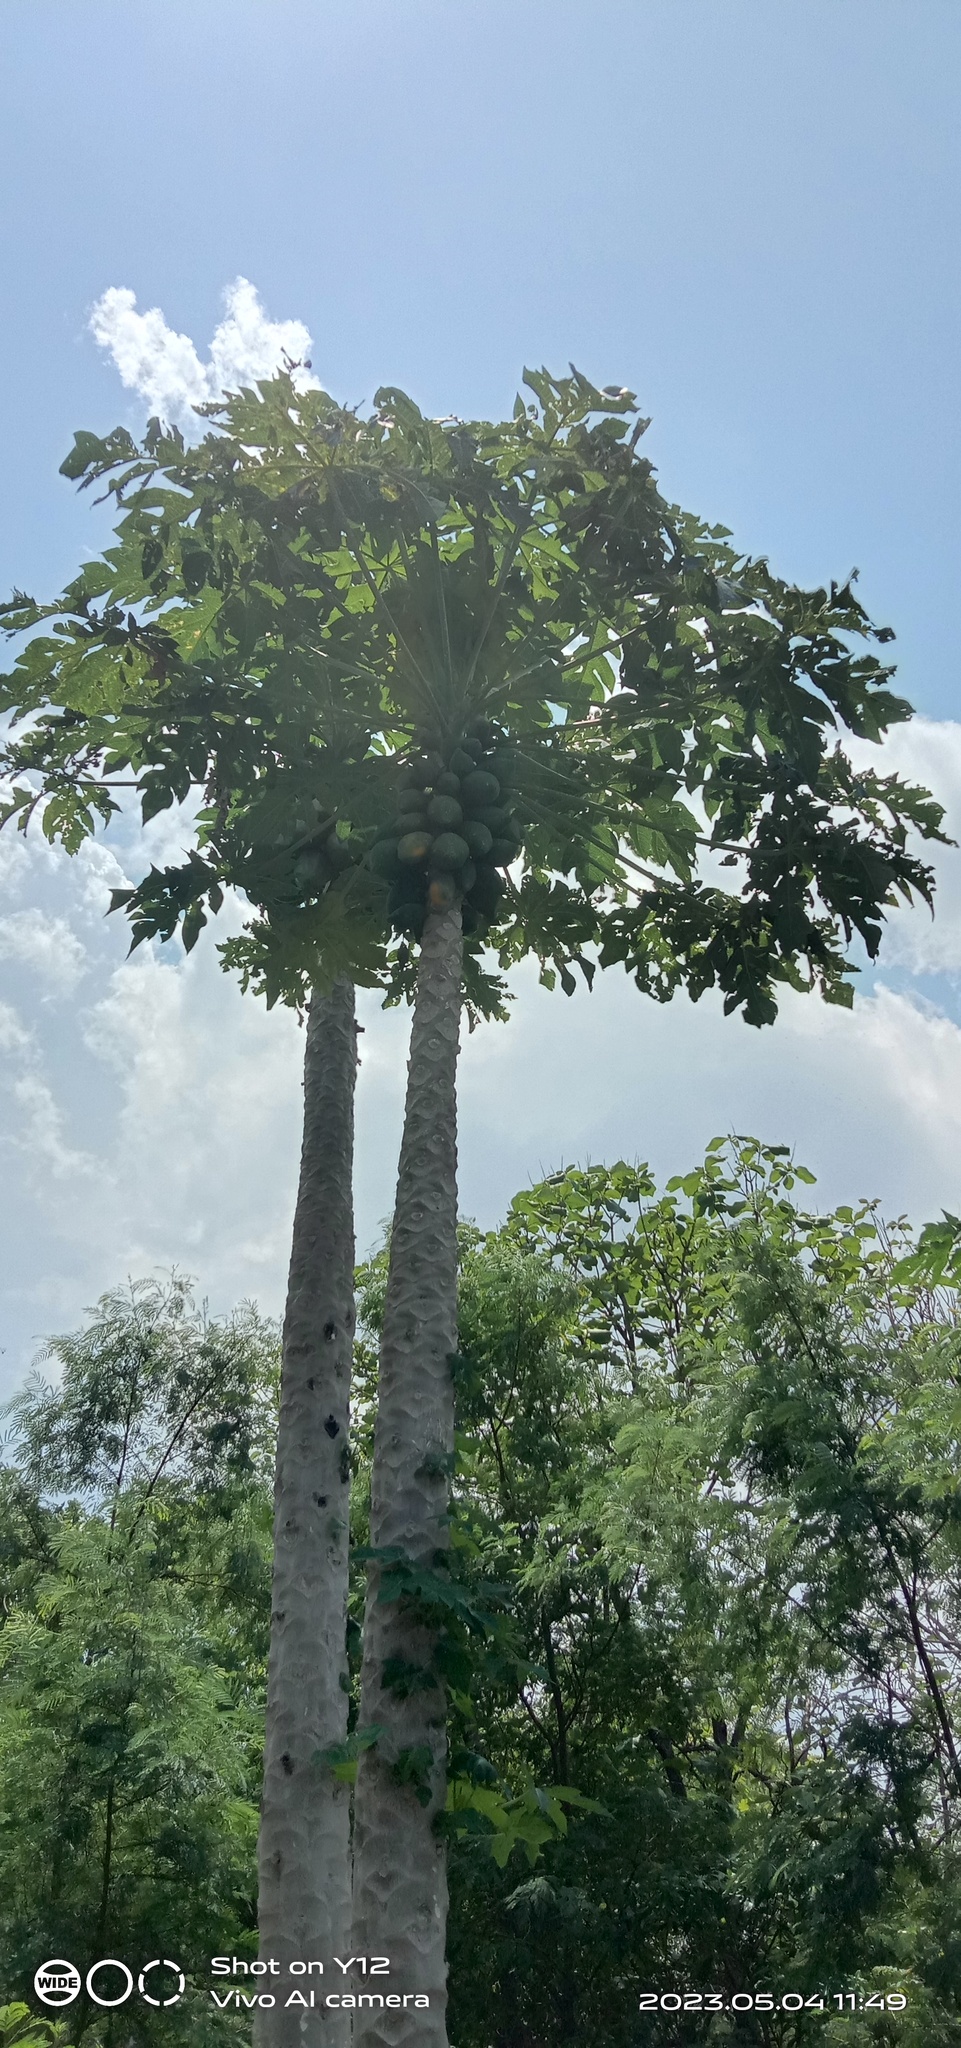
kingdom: Plantae
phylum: Tracheophyta
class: Magnoliopsida
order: Brassicales
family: Caricaceae
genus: Carica
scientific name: Carica papaya
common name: Papaya
